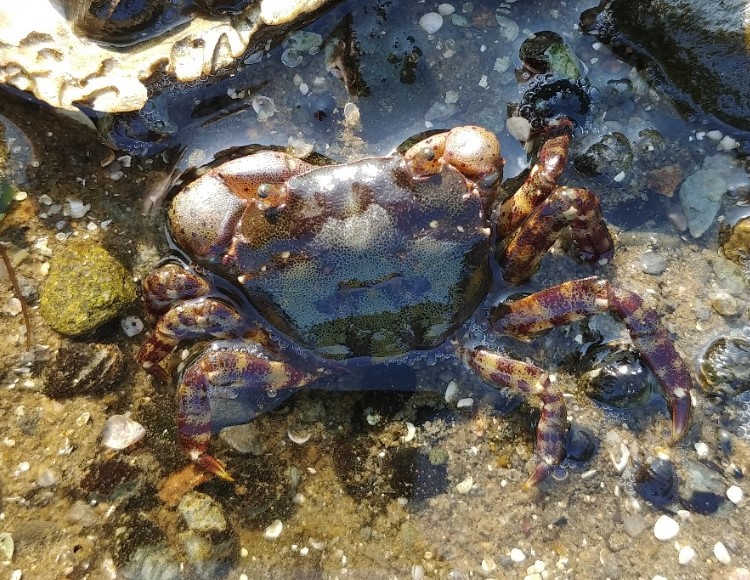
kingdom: Animalia
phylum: Arthropoda
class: Malacostraca
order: Decapoda
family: Varunidae
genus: Hemigrapsus
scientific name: Hemigrapsus sanguineus
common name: Asian shore crab
